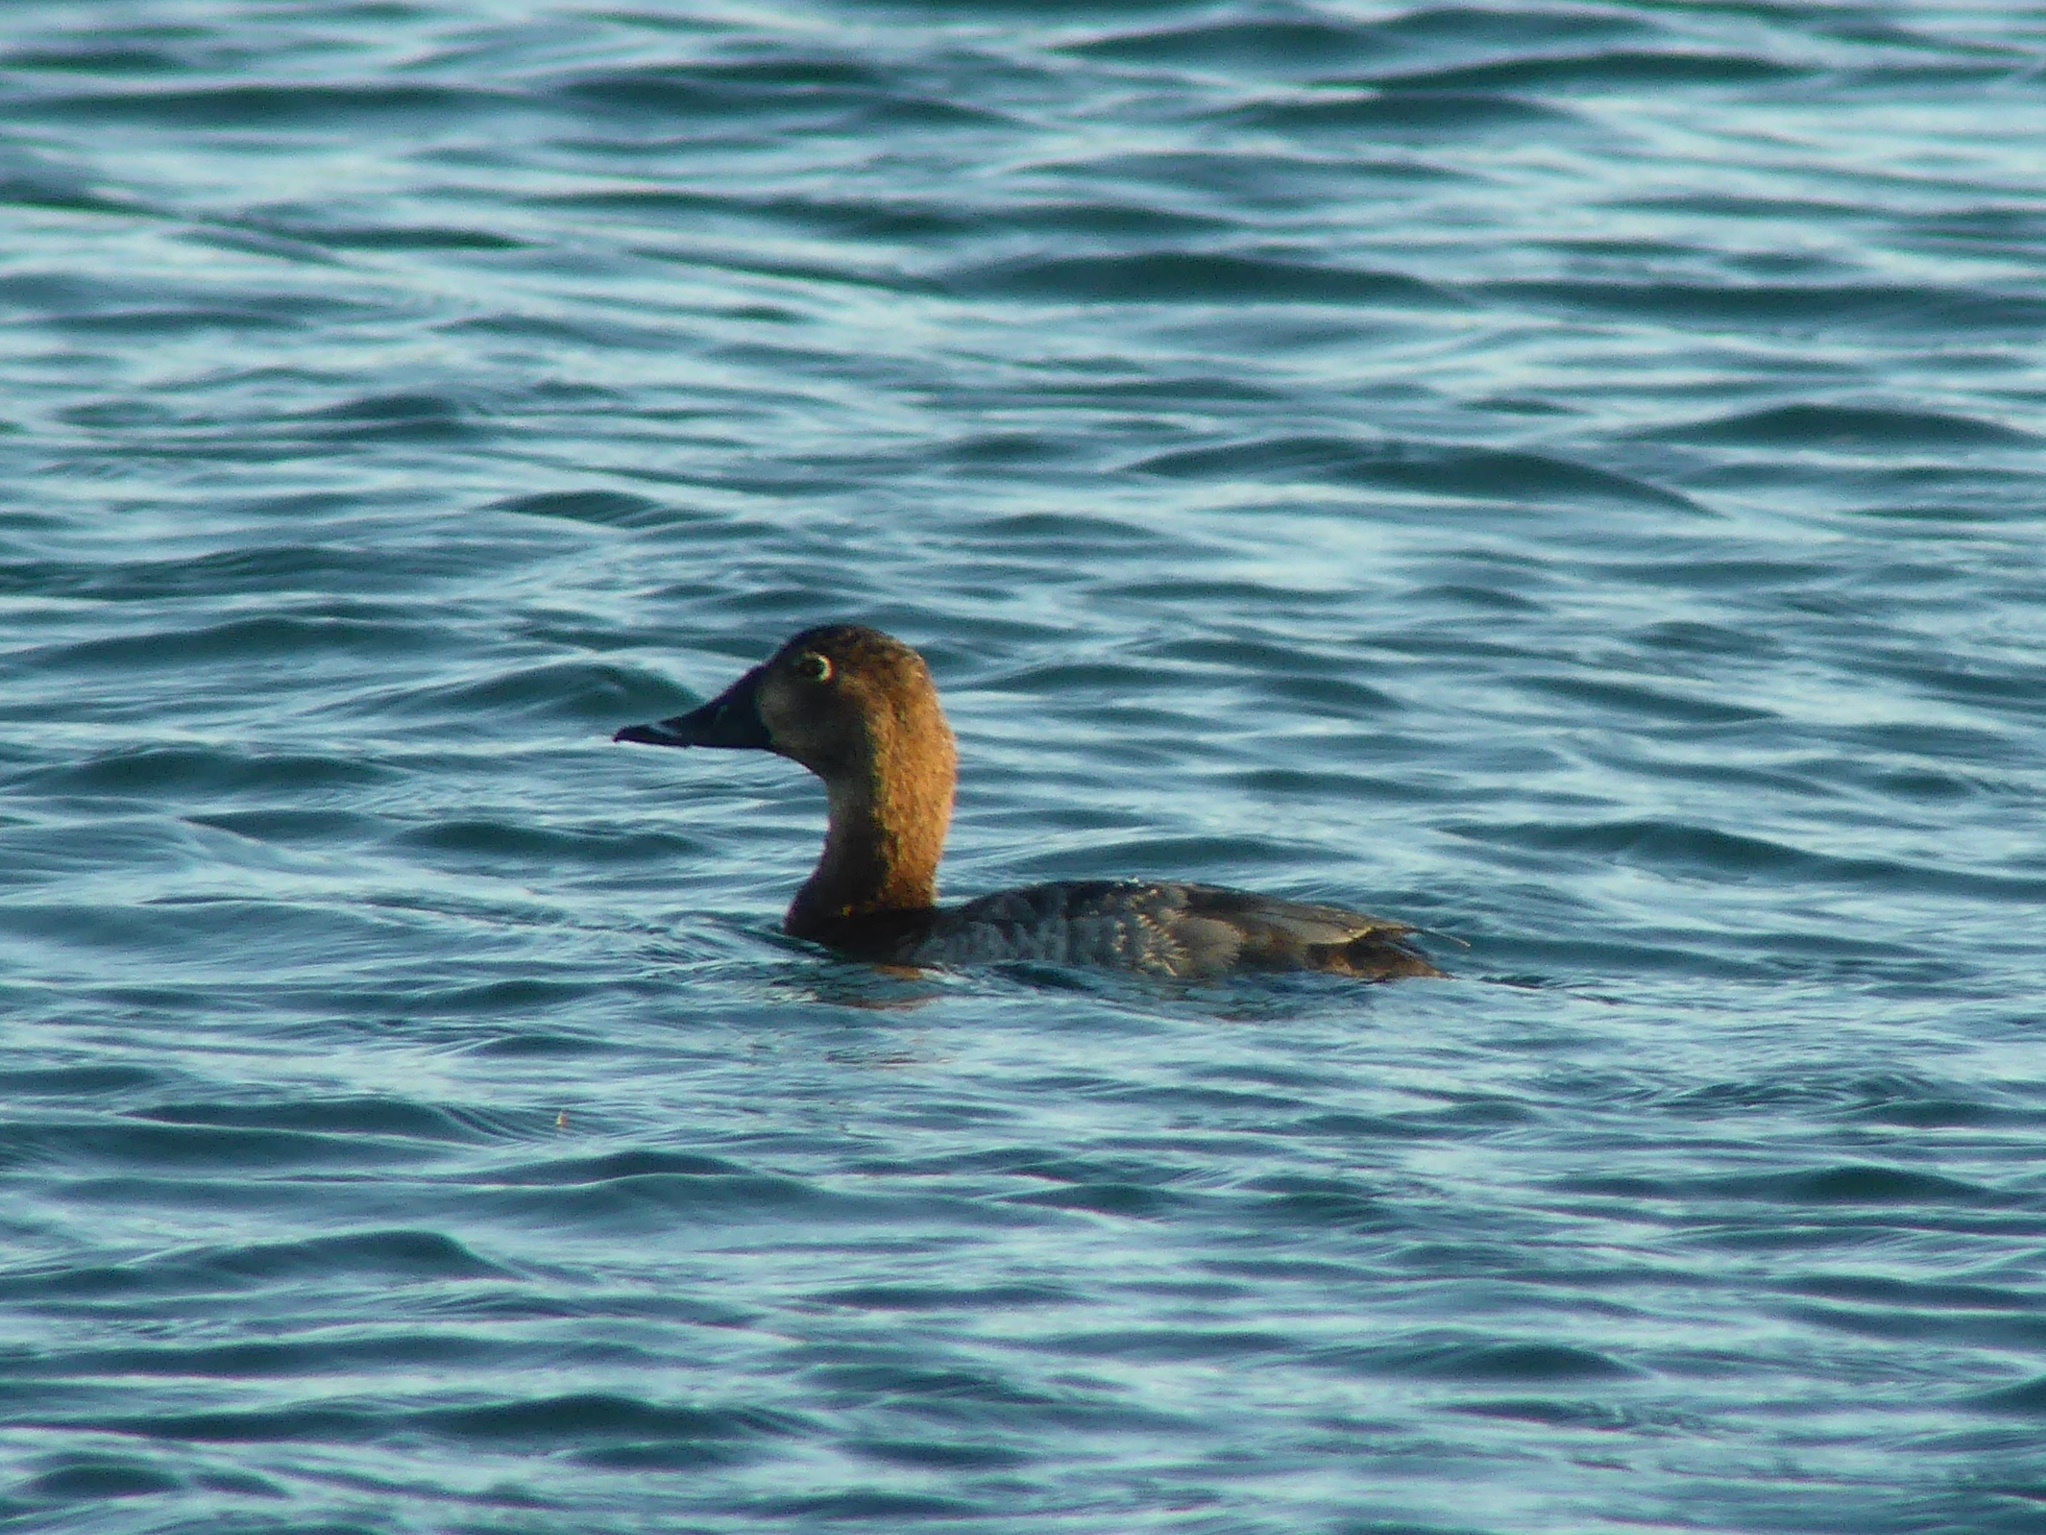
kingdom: Animalia
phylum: Chordata
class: Aves
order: Anseriformes
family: Anatidae
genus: Aythya
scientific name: Aythya ferina
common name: Common pochard
